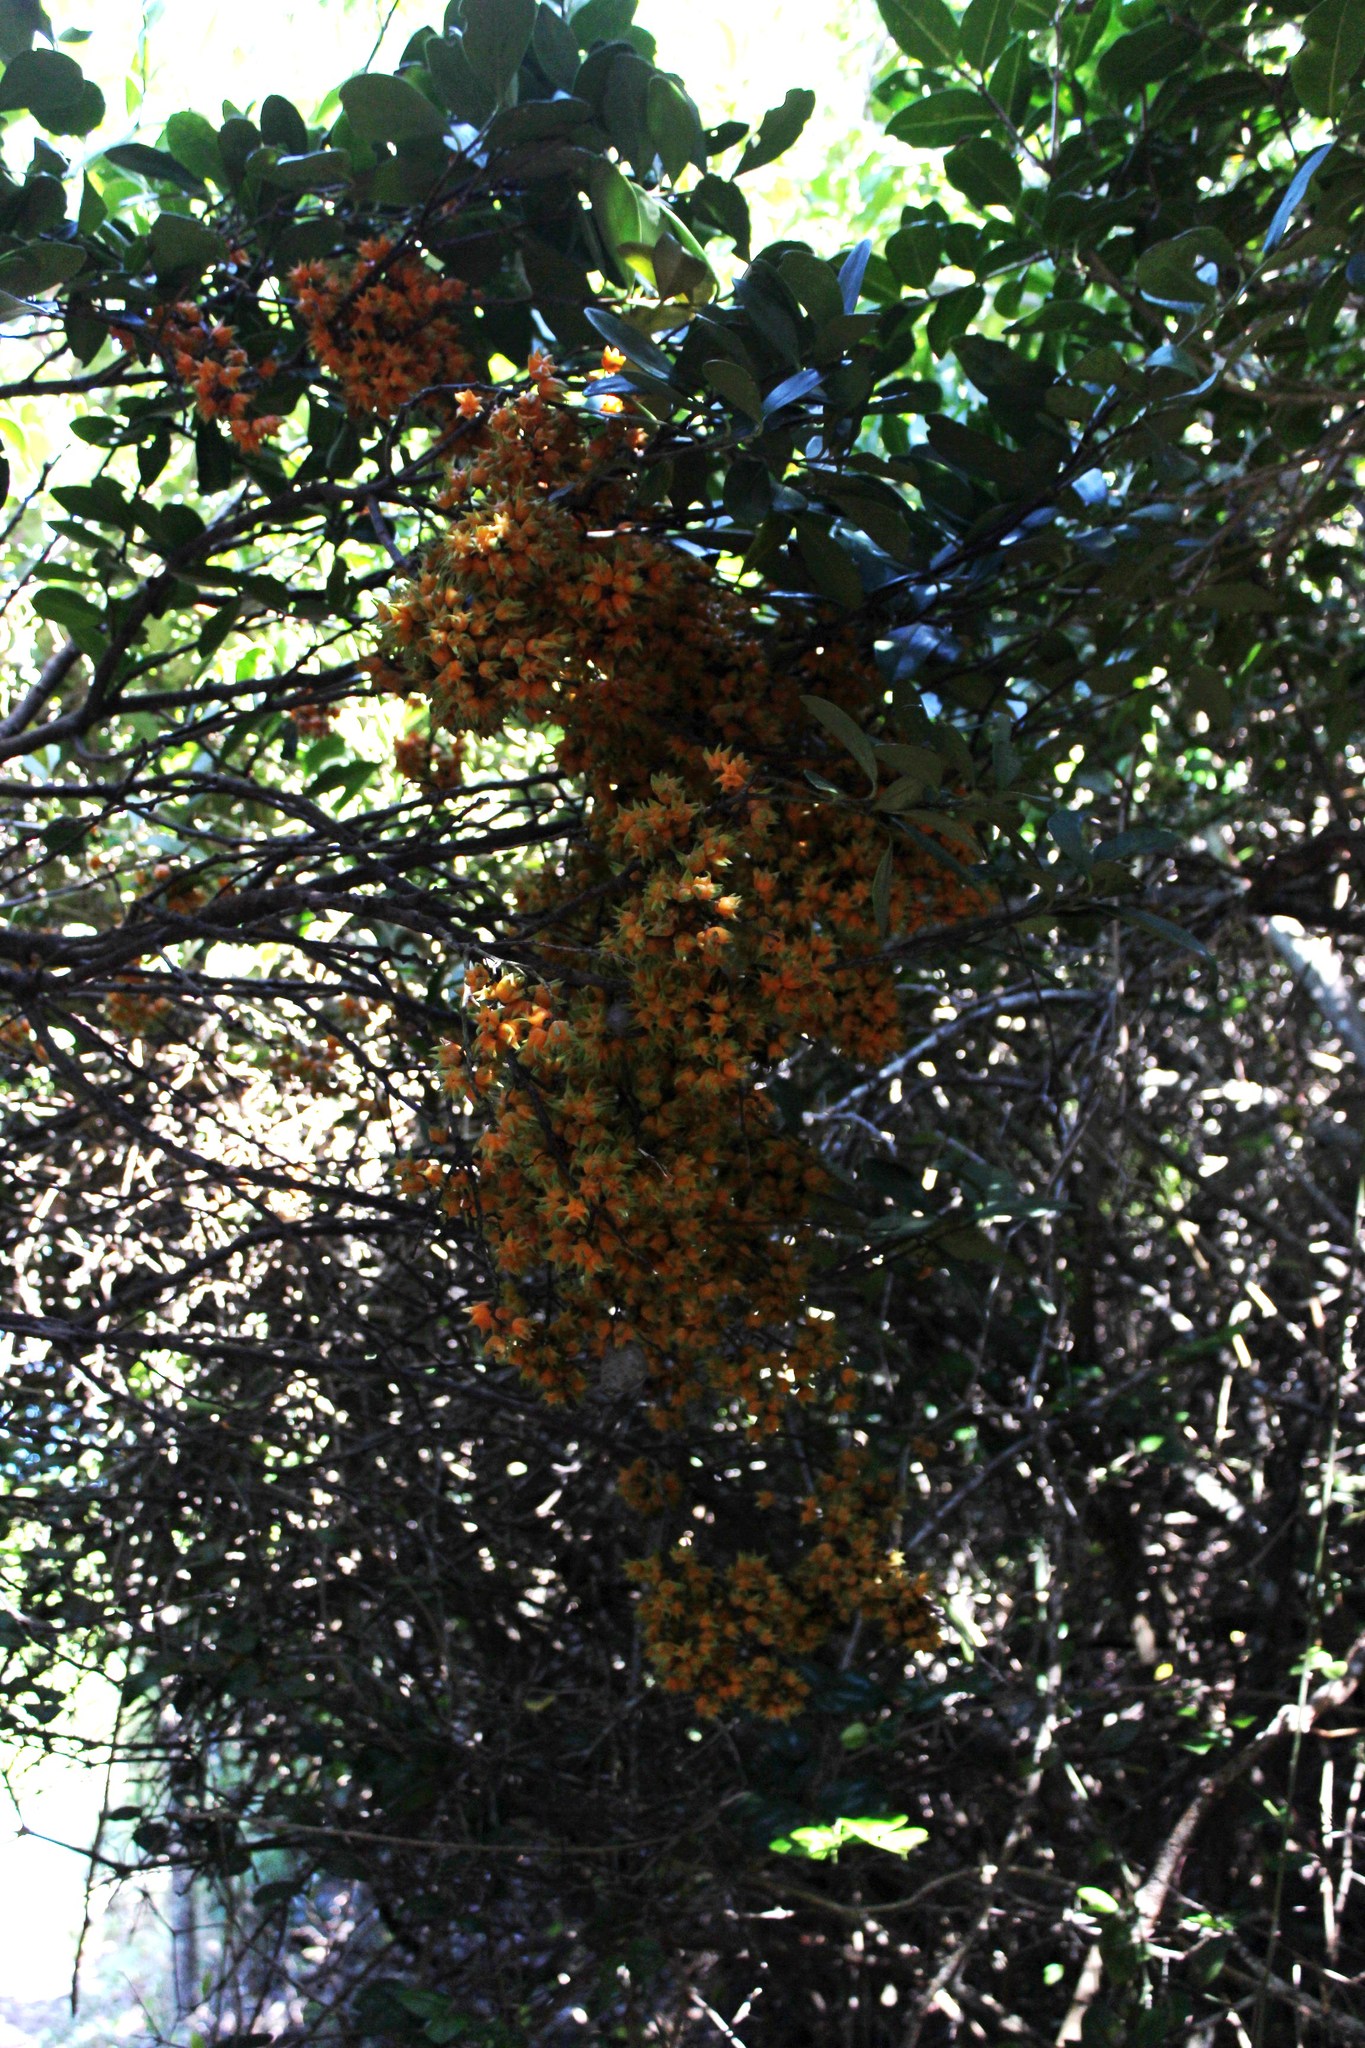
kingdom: Plantae
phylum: Tracheophyta
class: Magnoliopsida
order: Celastrales
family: Celastraceae
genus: Pterocelastrus
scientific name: Pterocelastrus tricuspidatus
